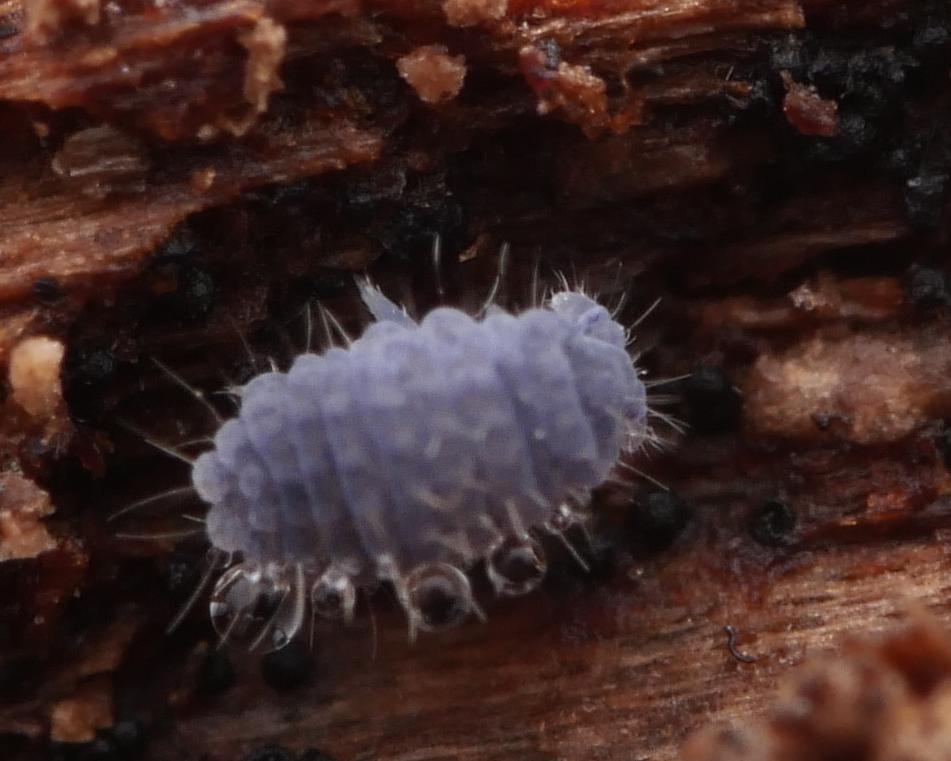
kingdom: Animalia
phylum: Arthropoda
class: Collembola
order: Poduromorpha
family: Neanuridae
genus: Neanura
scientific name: Neanura muscorum
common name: Springtail
